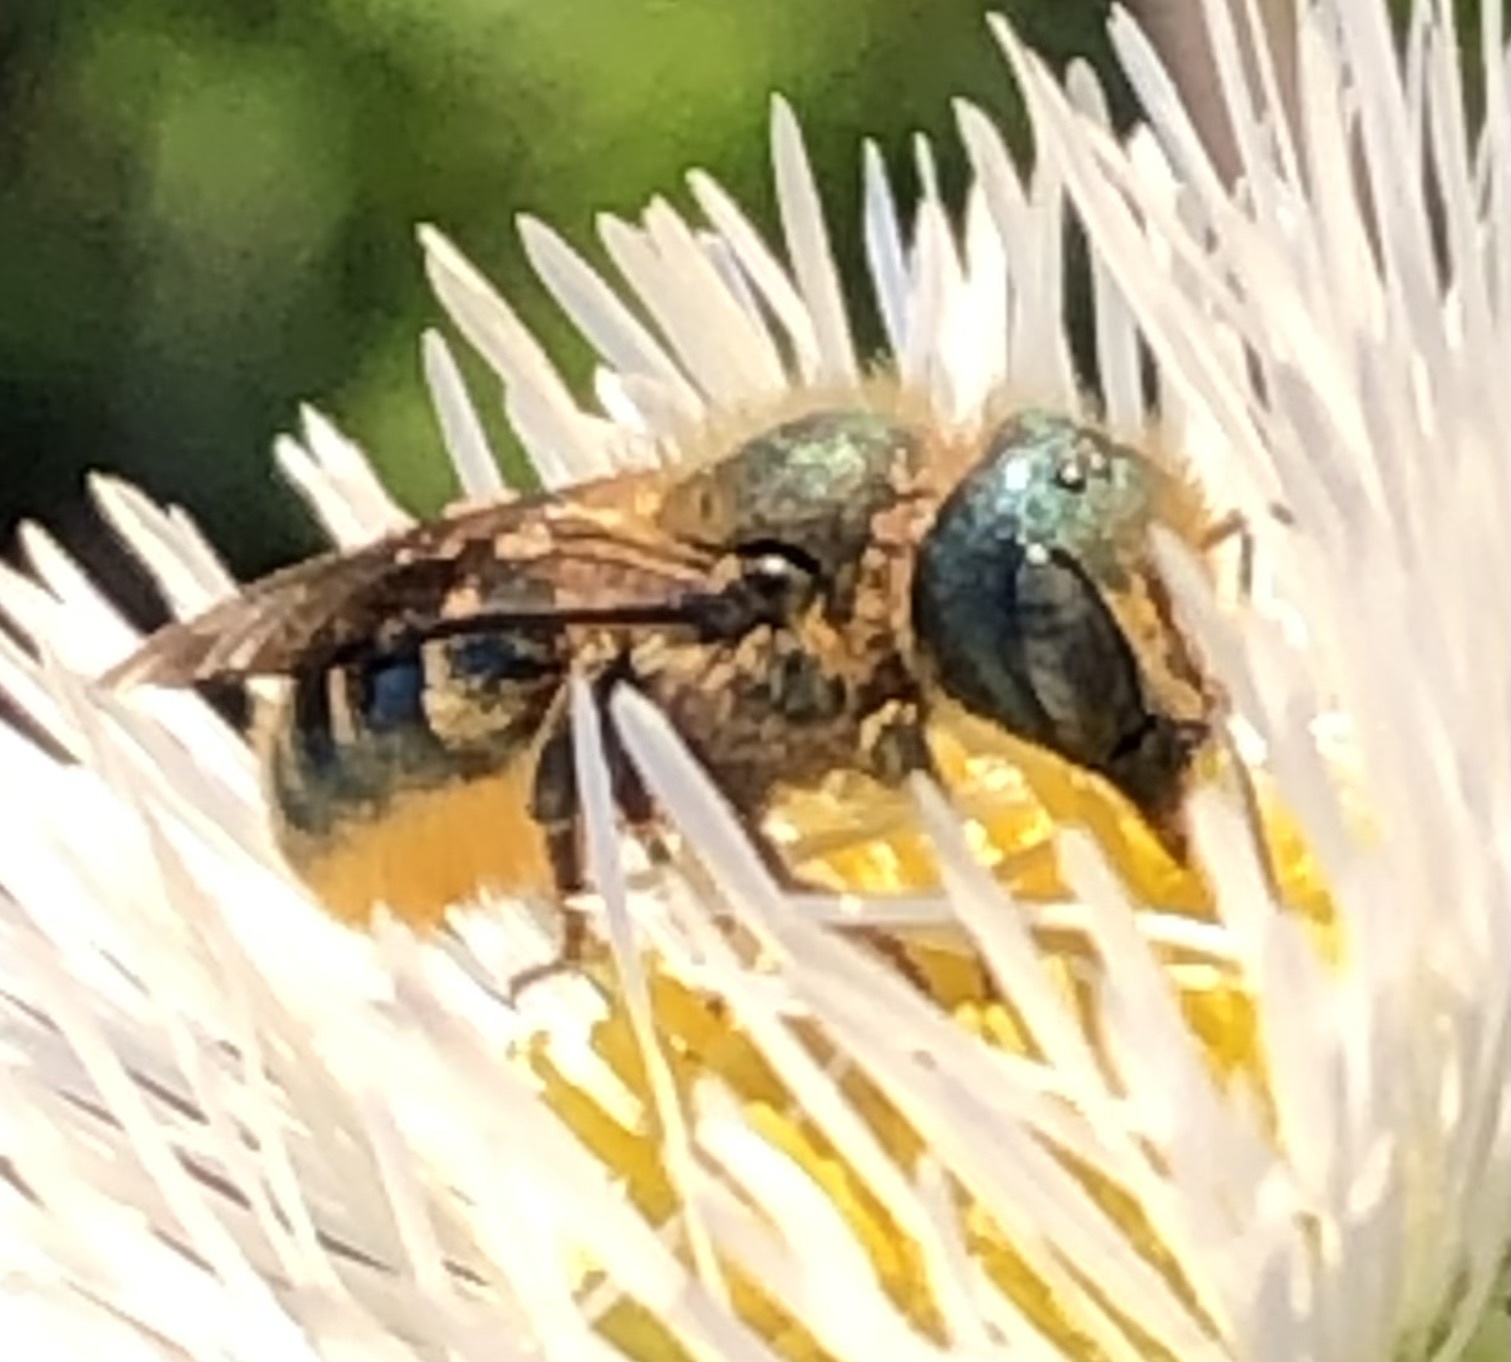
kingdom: Animalia
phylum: Arthropoda
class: Insecta
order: Hymenoptera
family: Megachilidae
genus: Osmia
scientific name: Osmia georgica
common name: Georgia mason
